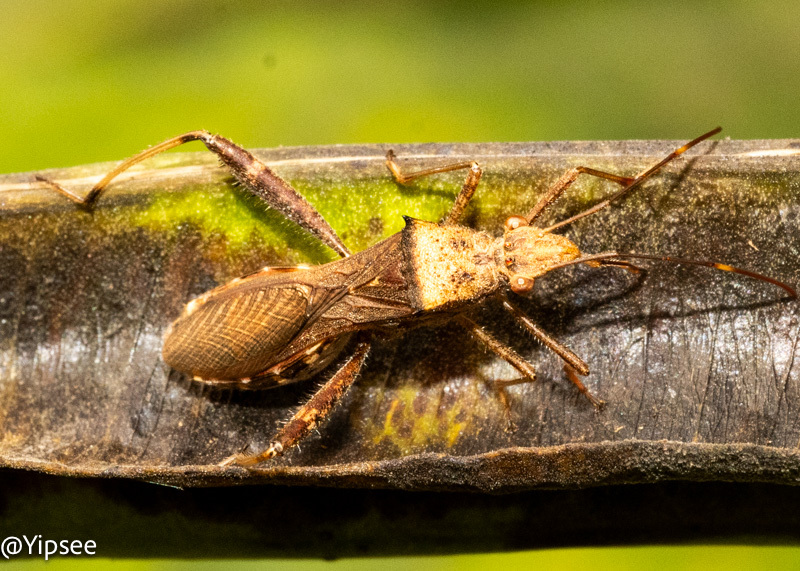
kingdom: Animalia
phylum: Arthropoda
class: Insecta
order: Hemiptera
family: Alydidae
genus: Riptortus
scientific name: Riptortus pedestris
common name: Bean bug
